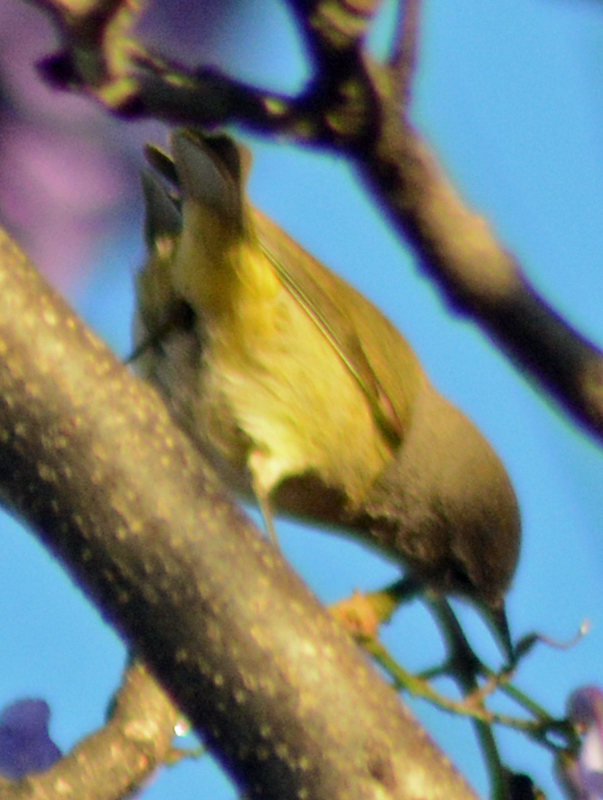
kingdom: Animalia
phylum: Chordata
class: Aves
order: Passeriformes
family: Parulidae
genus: Leiothlypis
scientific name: Leiothlypis celata
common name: Orange-crowned warbler
